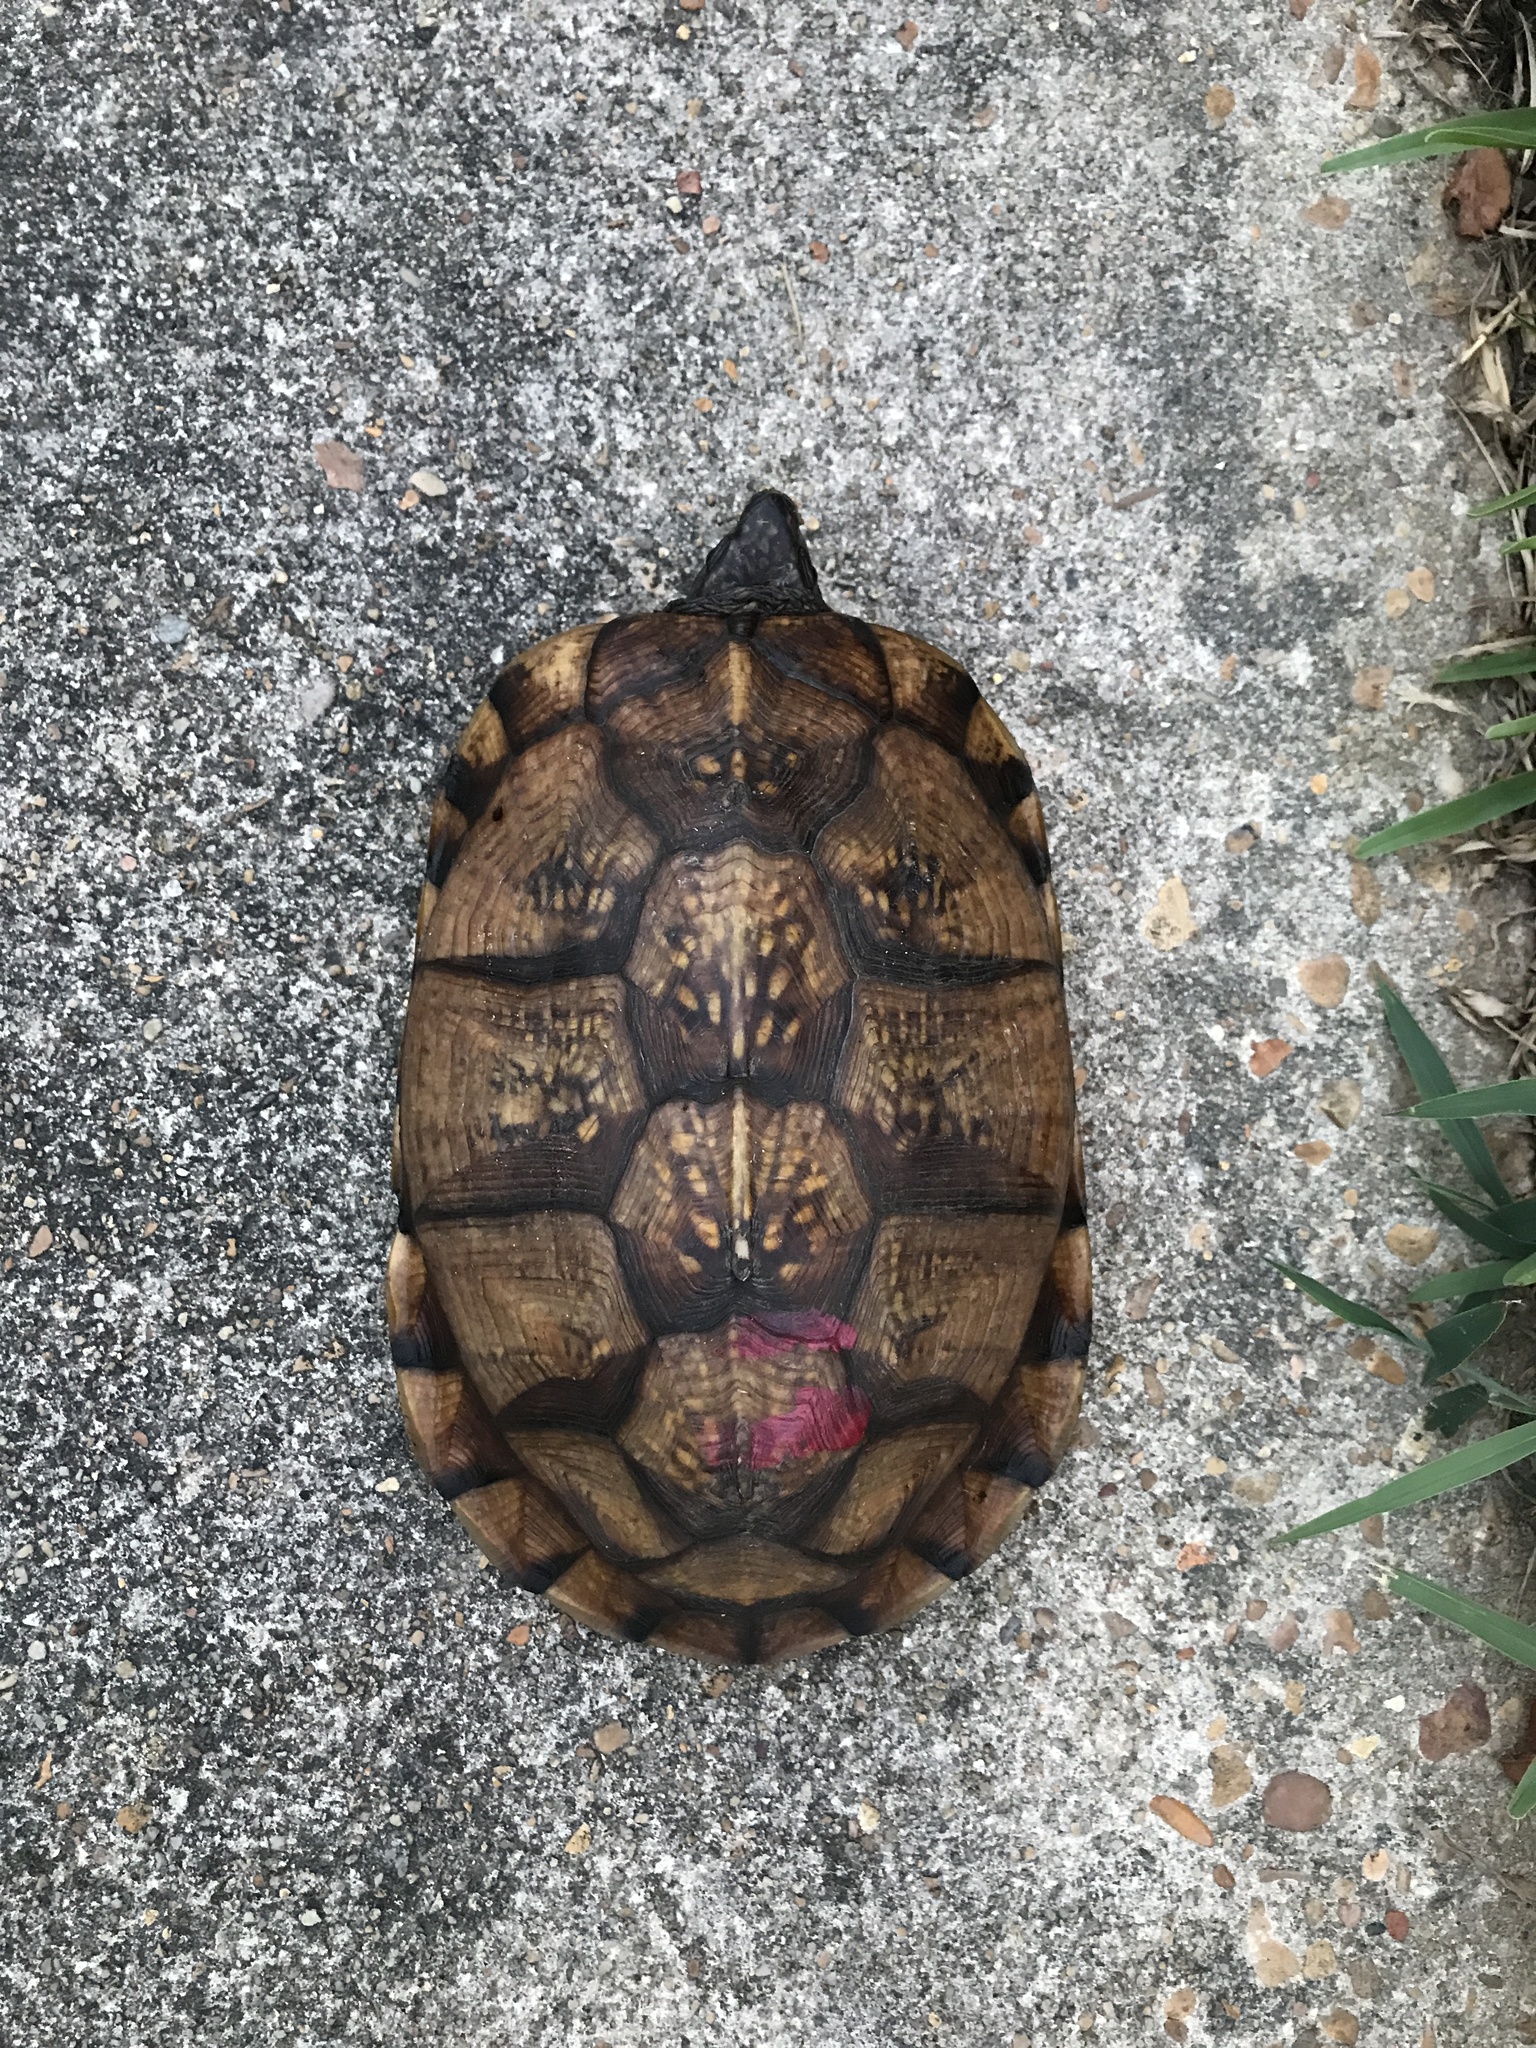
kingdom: Animalia
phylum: Chordata
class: Testudines
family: Emydidae
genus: Terrapene
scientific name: Terrapene carolina
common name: Common box turtle
